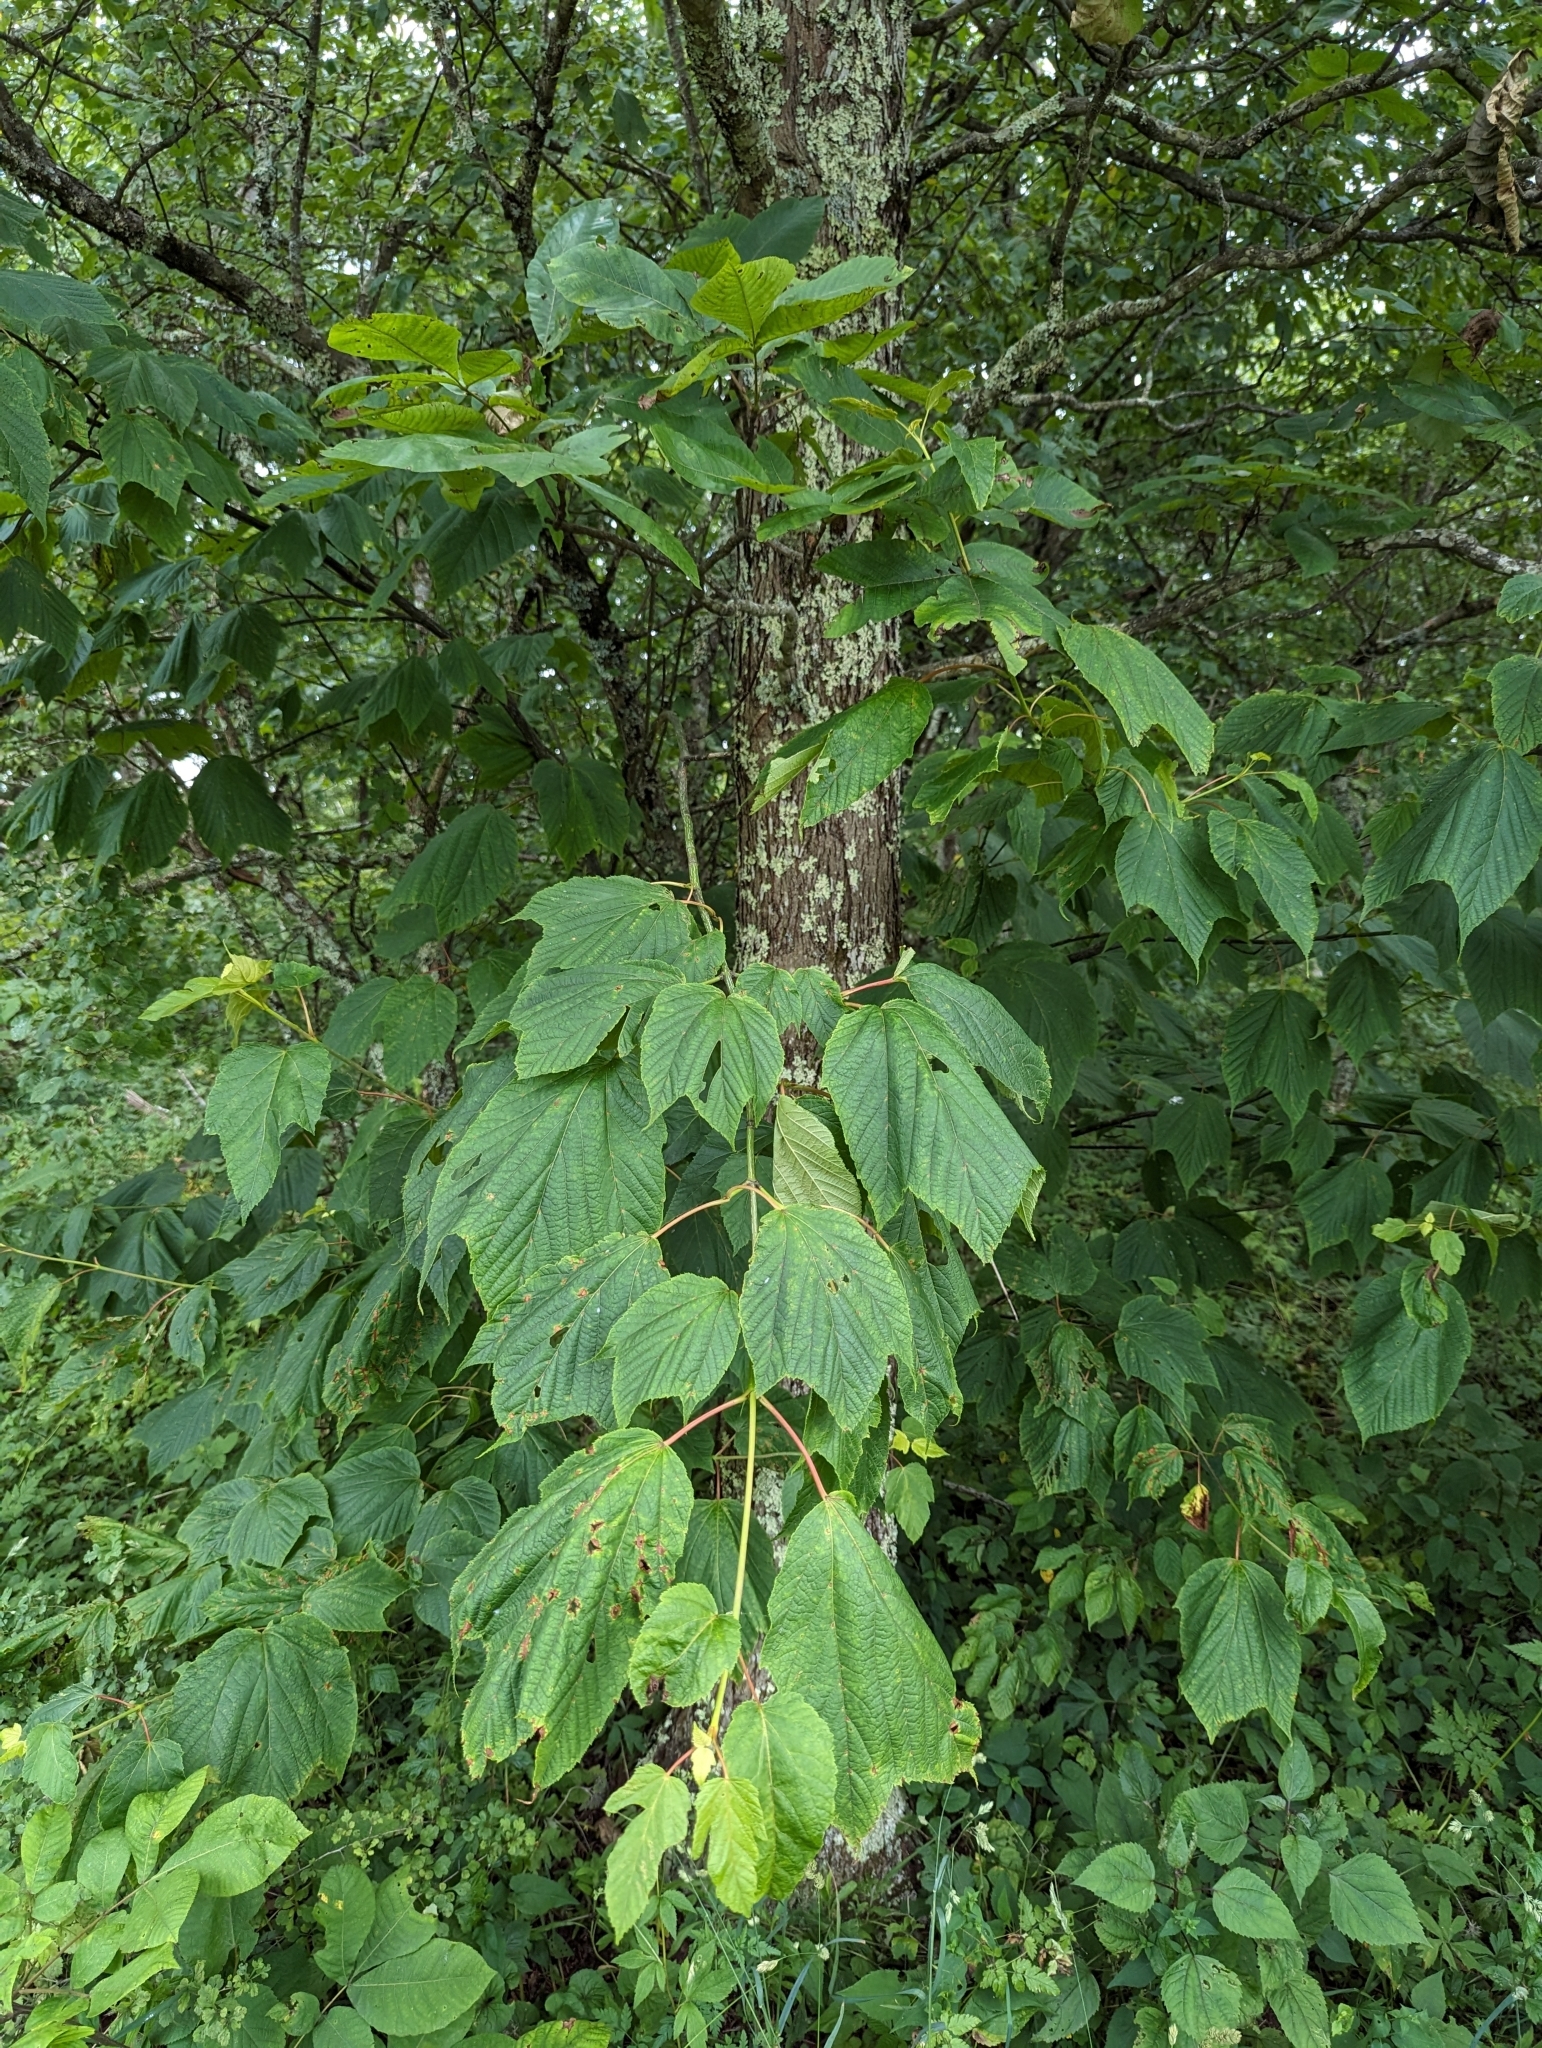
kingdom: Plantae
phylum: Tracheophyta
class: Magnoliopsida
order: Sapindales
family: Sapindaceae
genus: Acer
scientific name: Acer pensylvanicum
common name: Moosewood
